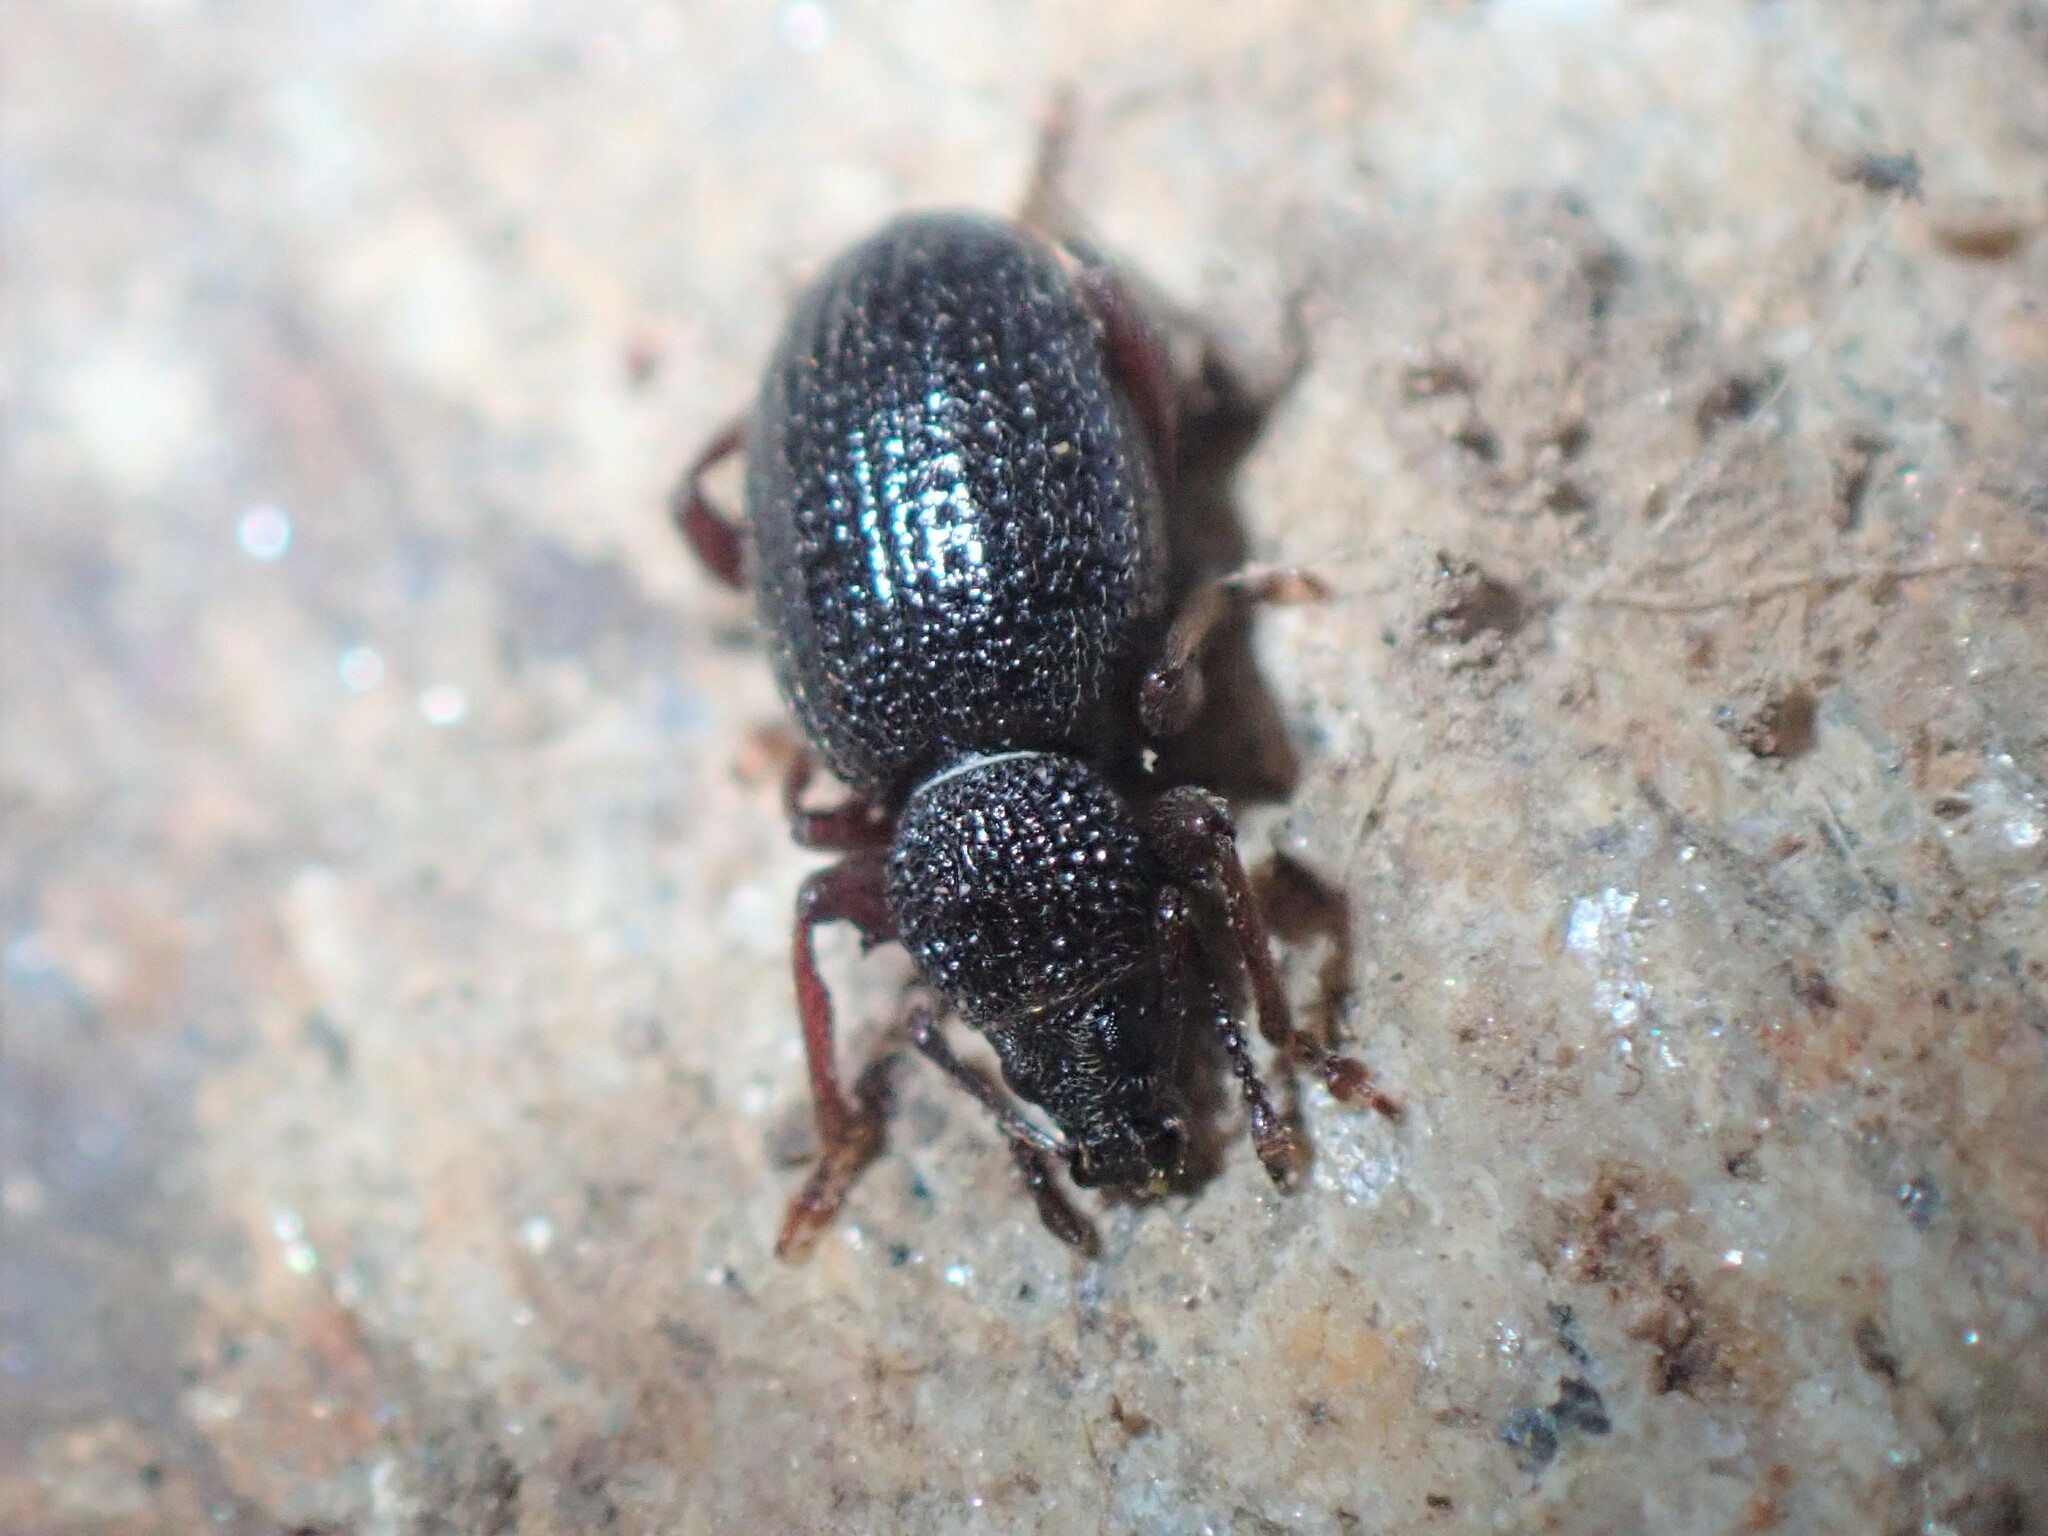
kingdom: Animalia
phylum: Arthropoda
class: Insecta
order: Coleoptera
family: Curculionidae
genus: Otiorhynchus
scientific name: Otiorhynchus ovatus
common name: Strawberry root weevil
